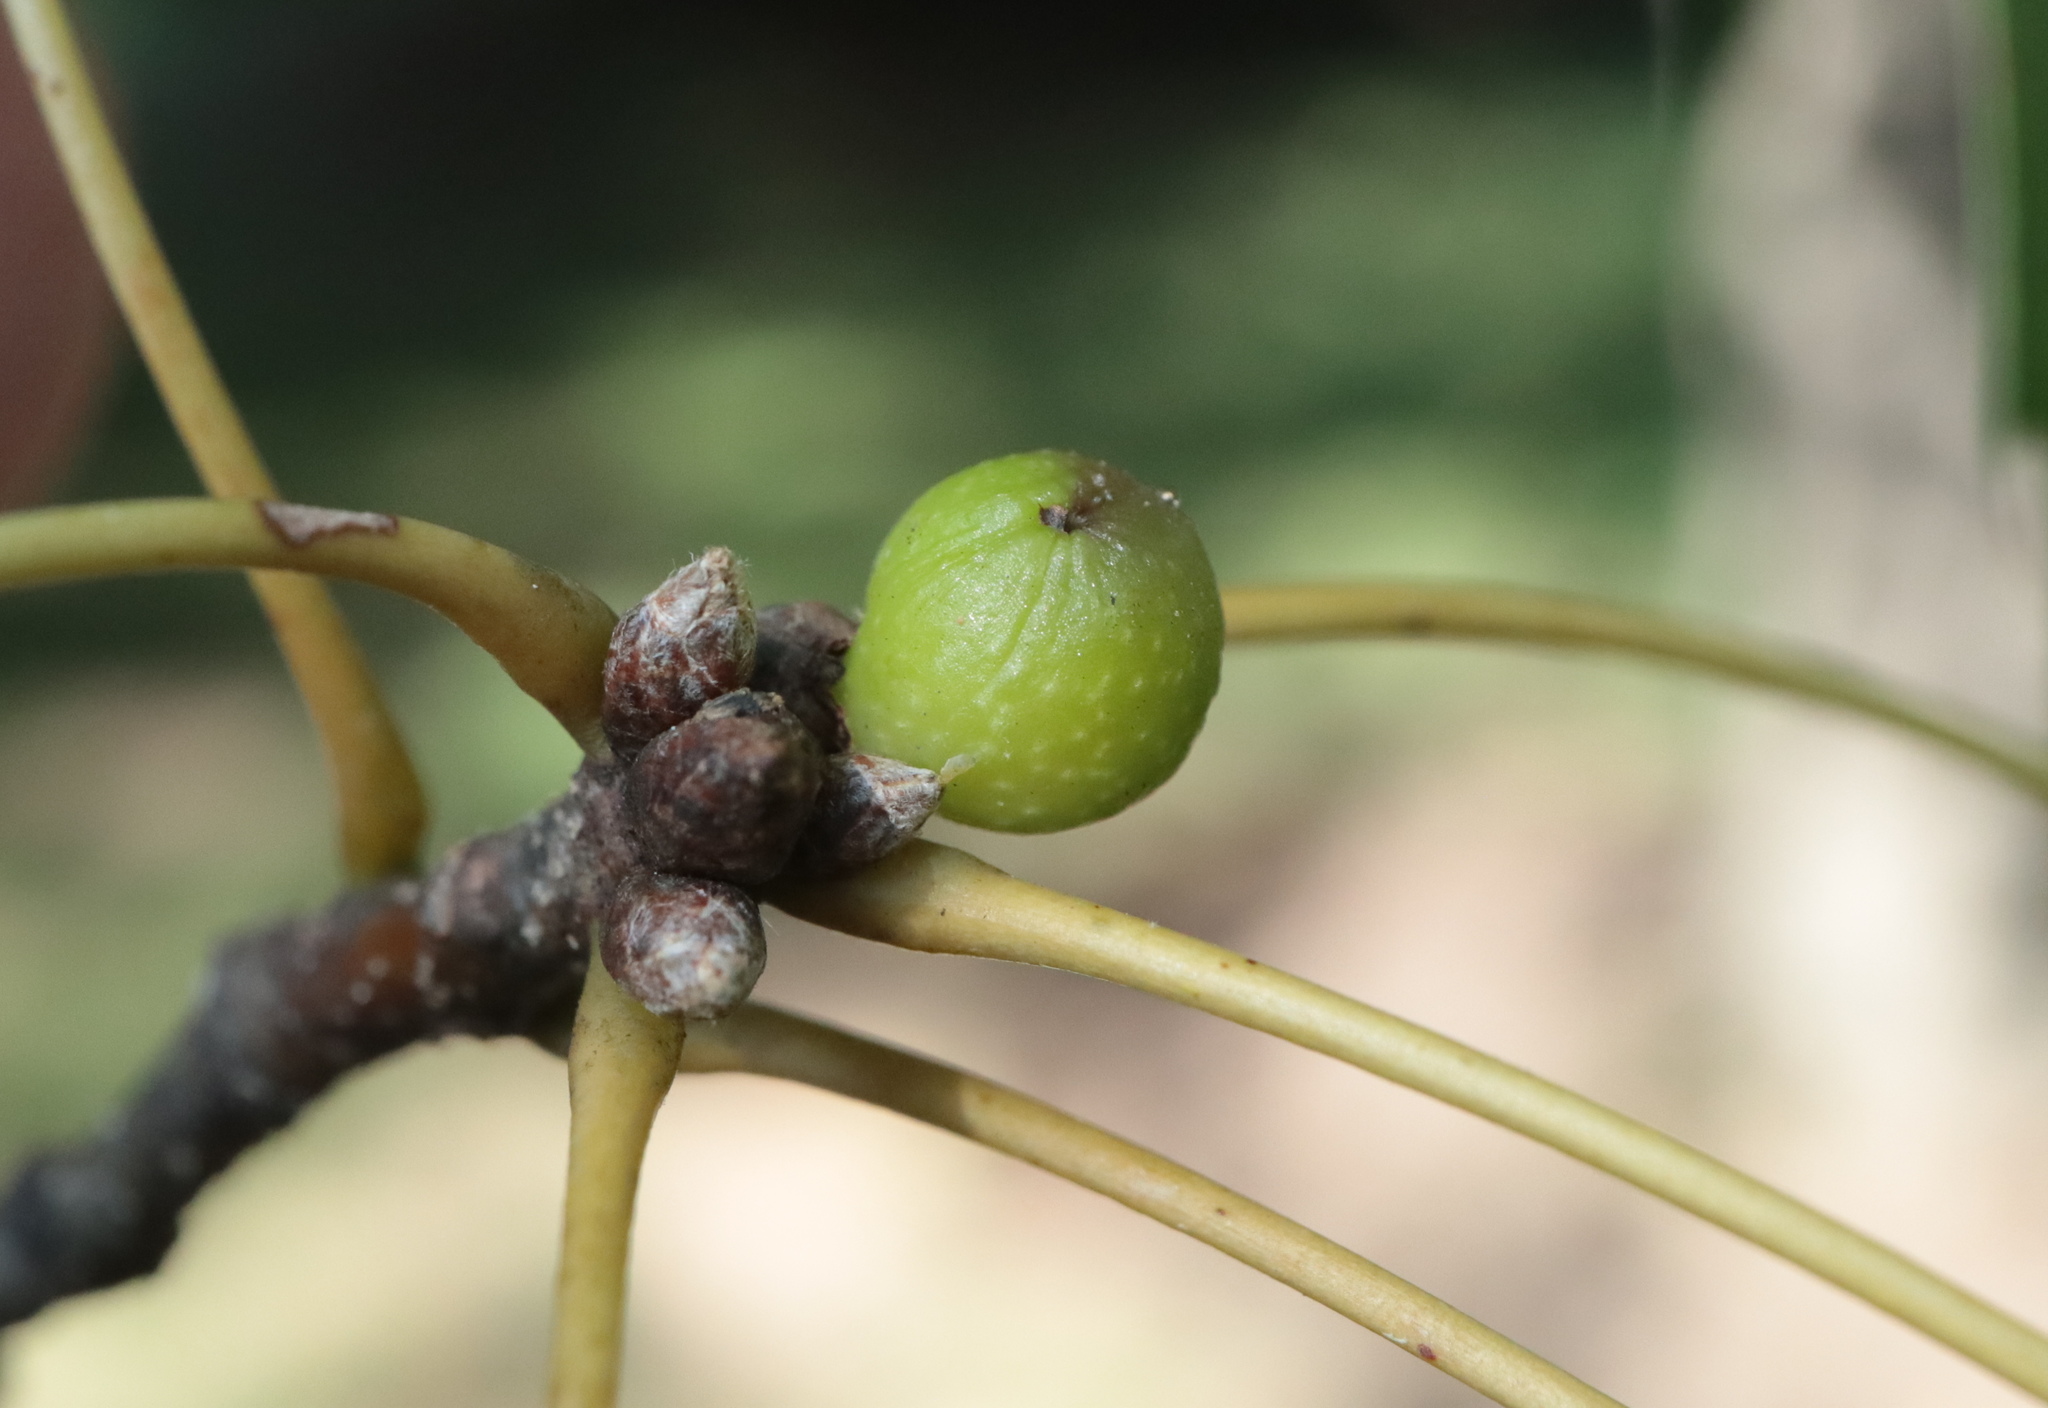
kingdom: Animalia
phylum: Arthropoda
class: Insecta
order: Hymenoptera
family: Cynipidae
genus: Callirhytis
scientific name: Callirhytis
